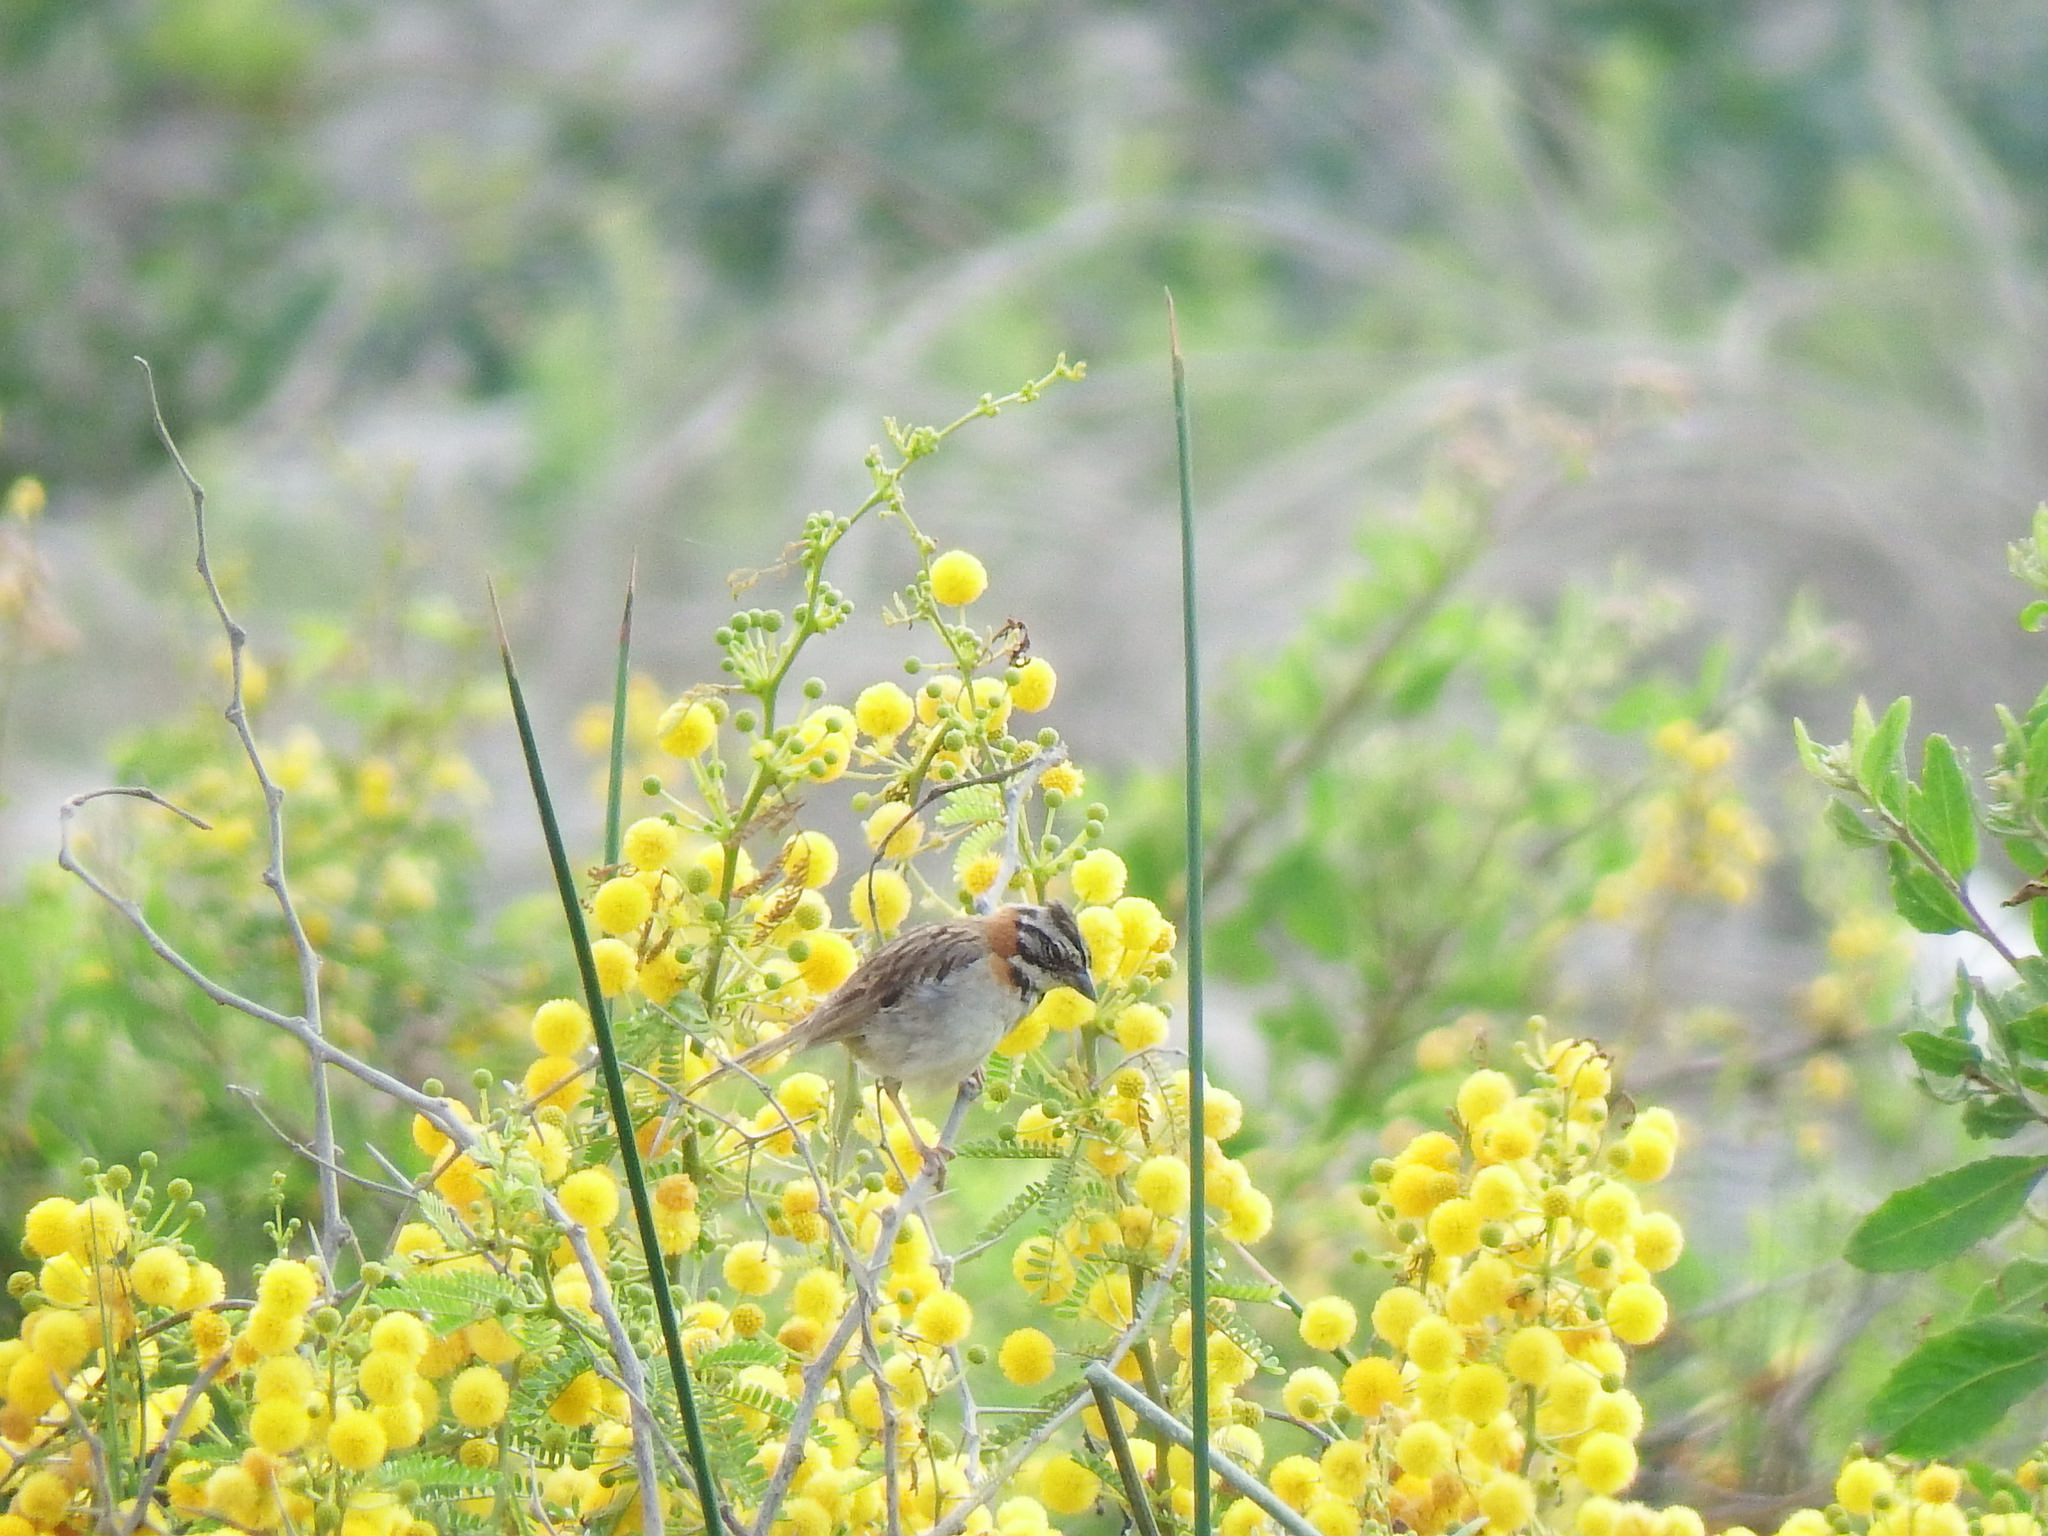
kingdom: Animalia
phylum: Chordata
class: Aves
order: Passeriformes
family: Passerellidae
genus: Zonotrichia
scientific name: Zonotrichia capensis
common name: Rufous-collared sparrow
